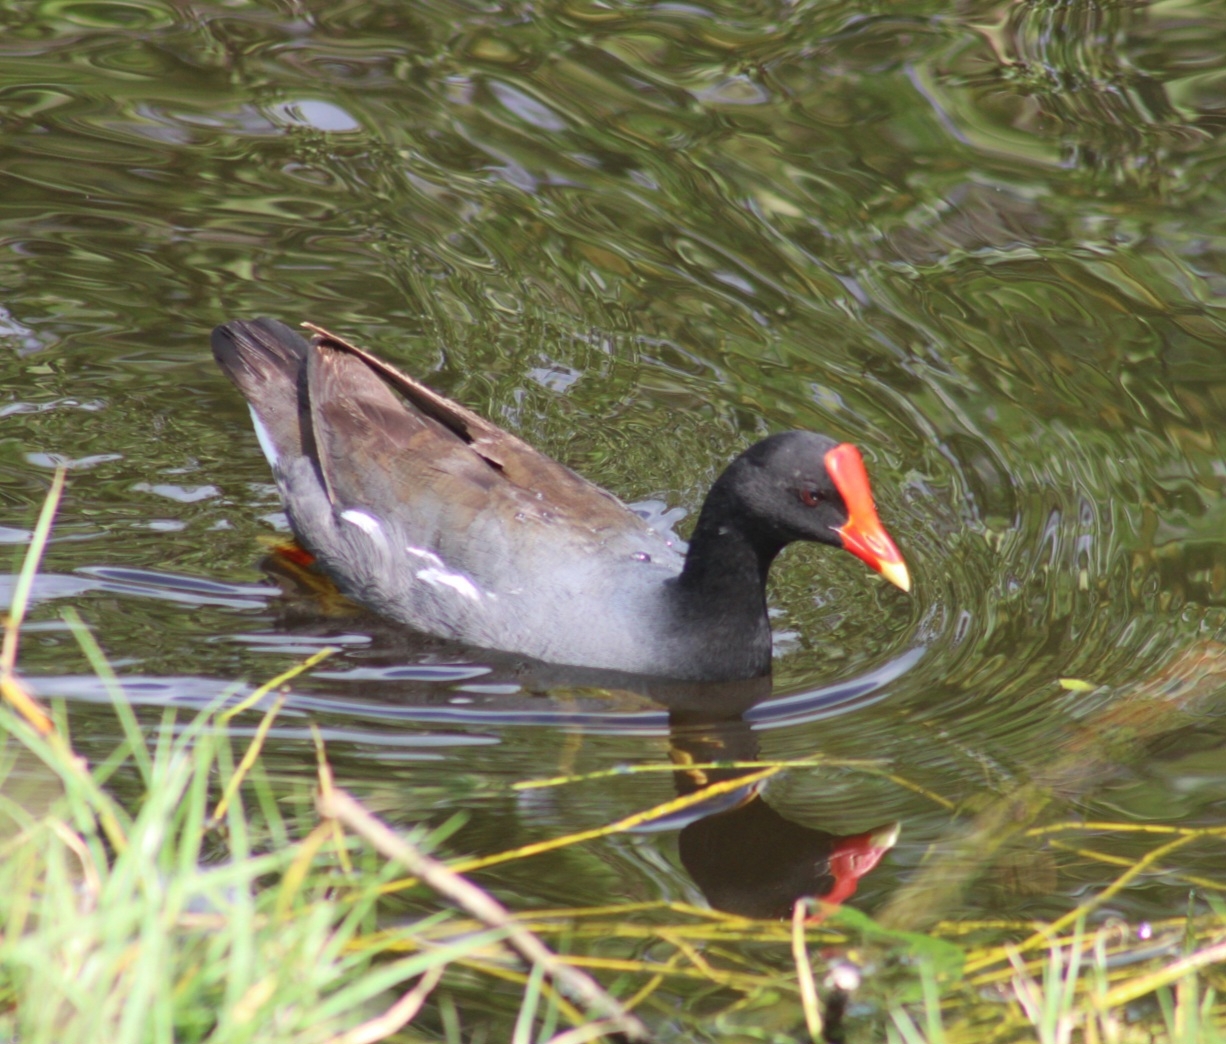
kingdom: Animalia
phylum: Chordata
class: Aves
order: Gruiformes
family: Rallidae
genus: Gallinula
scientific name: Gallinula chloropus
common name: Common moorhen
